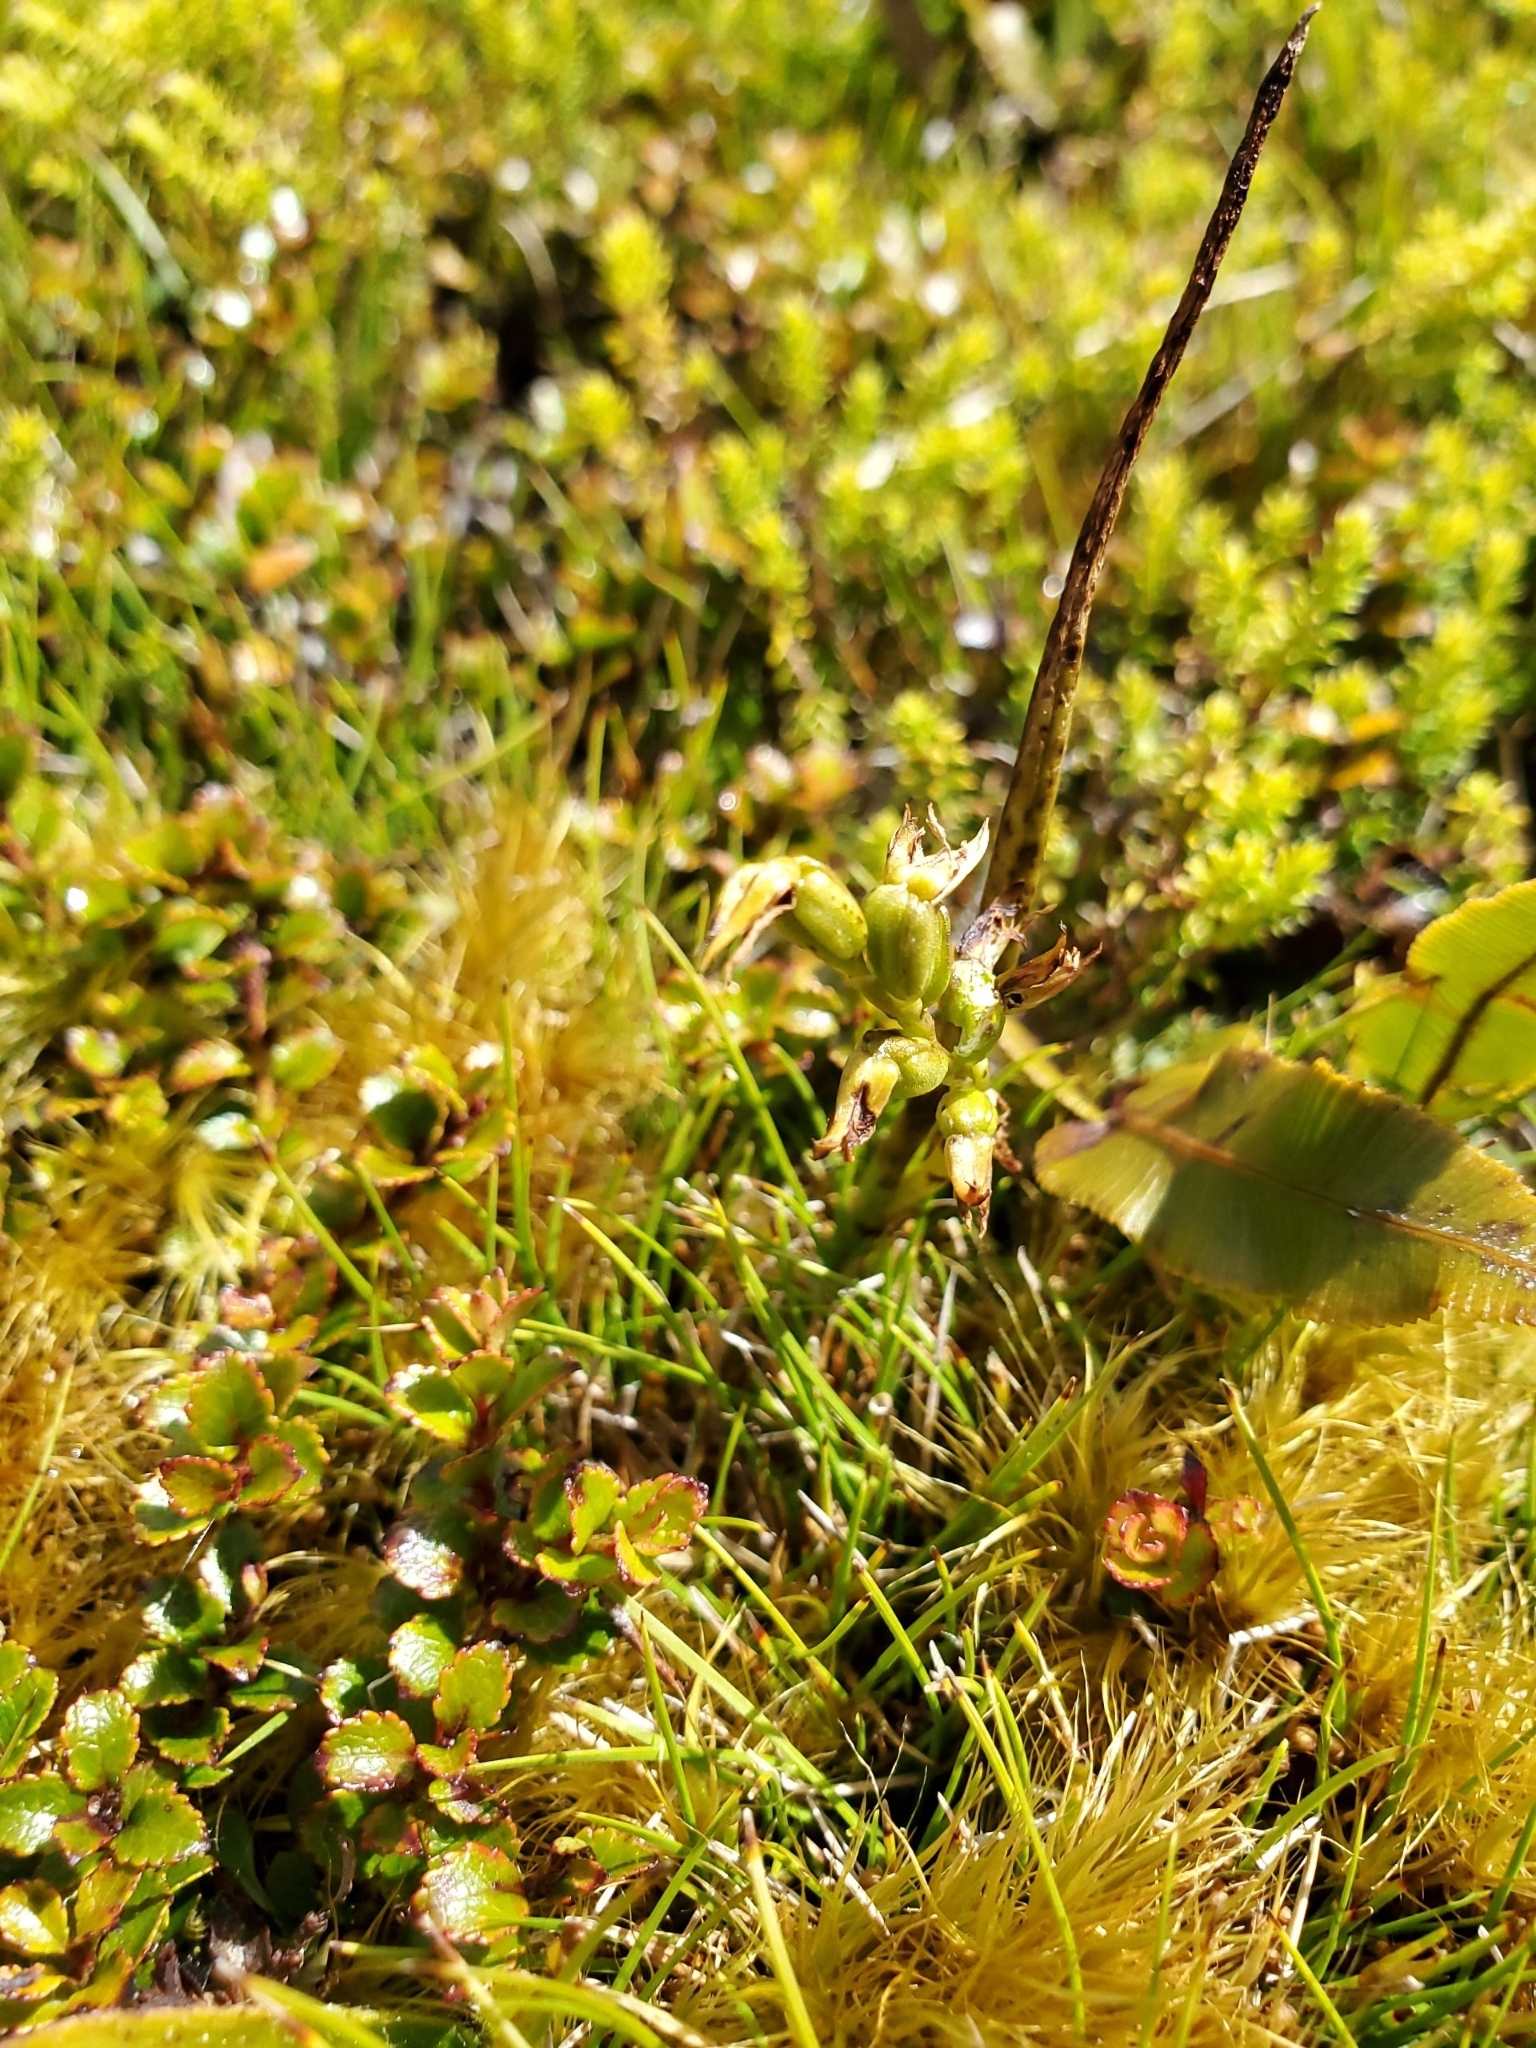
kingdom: Plantae
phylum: Tracheophyta
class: Liliopsida
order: Asparagales
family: Orchidaceae
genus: Prasophyllum
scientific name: Prasophyllum colensoi
